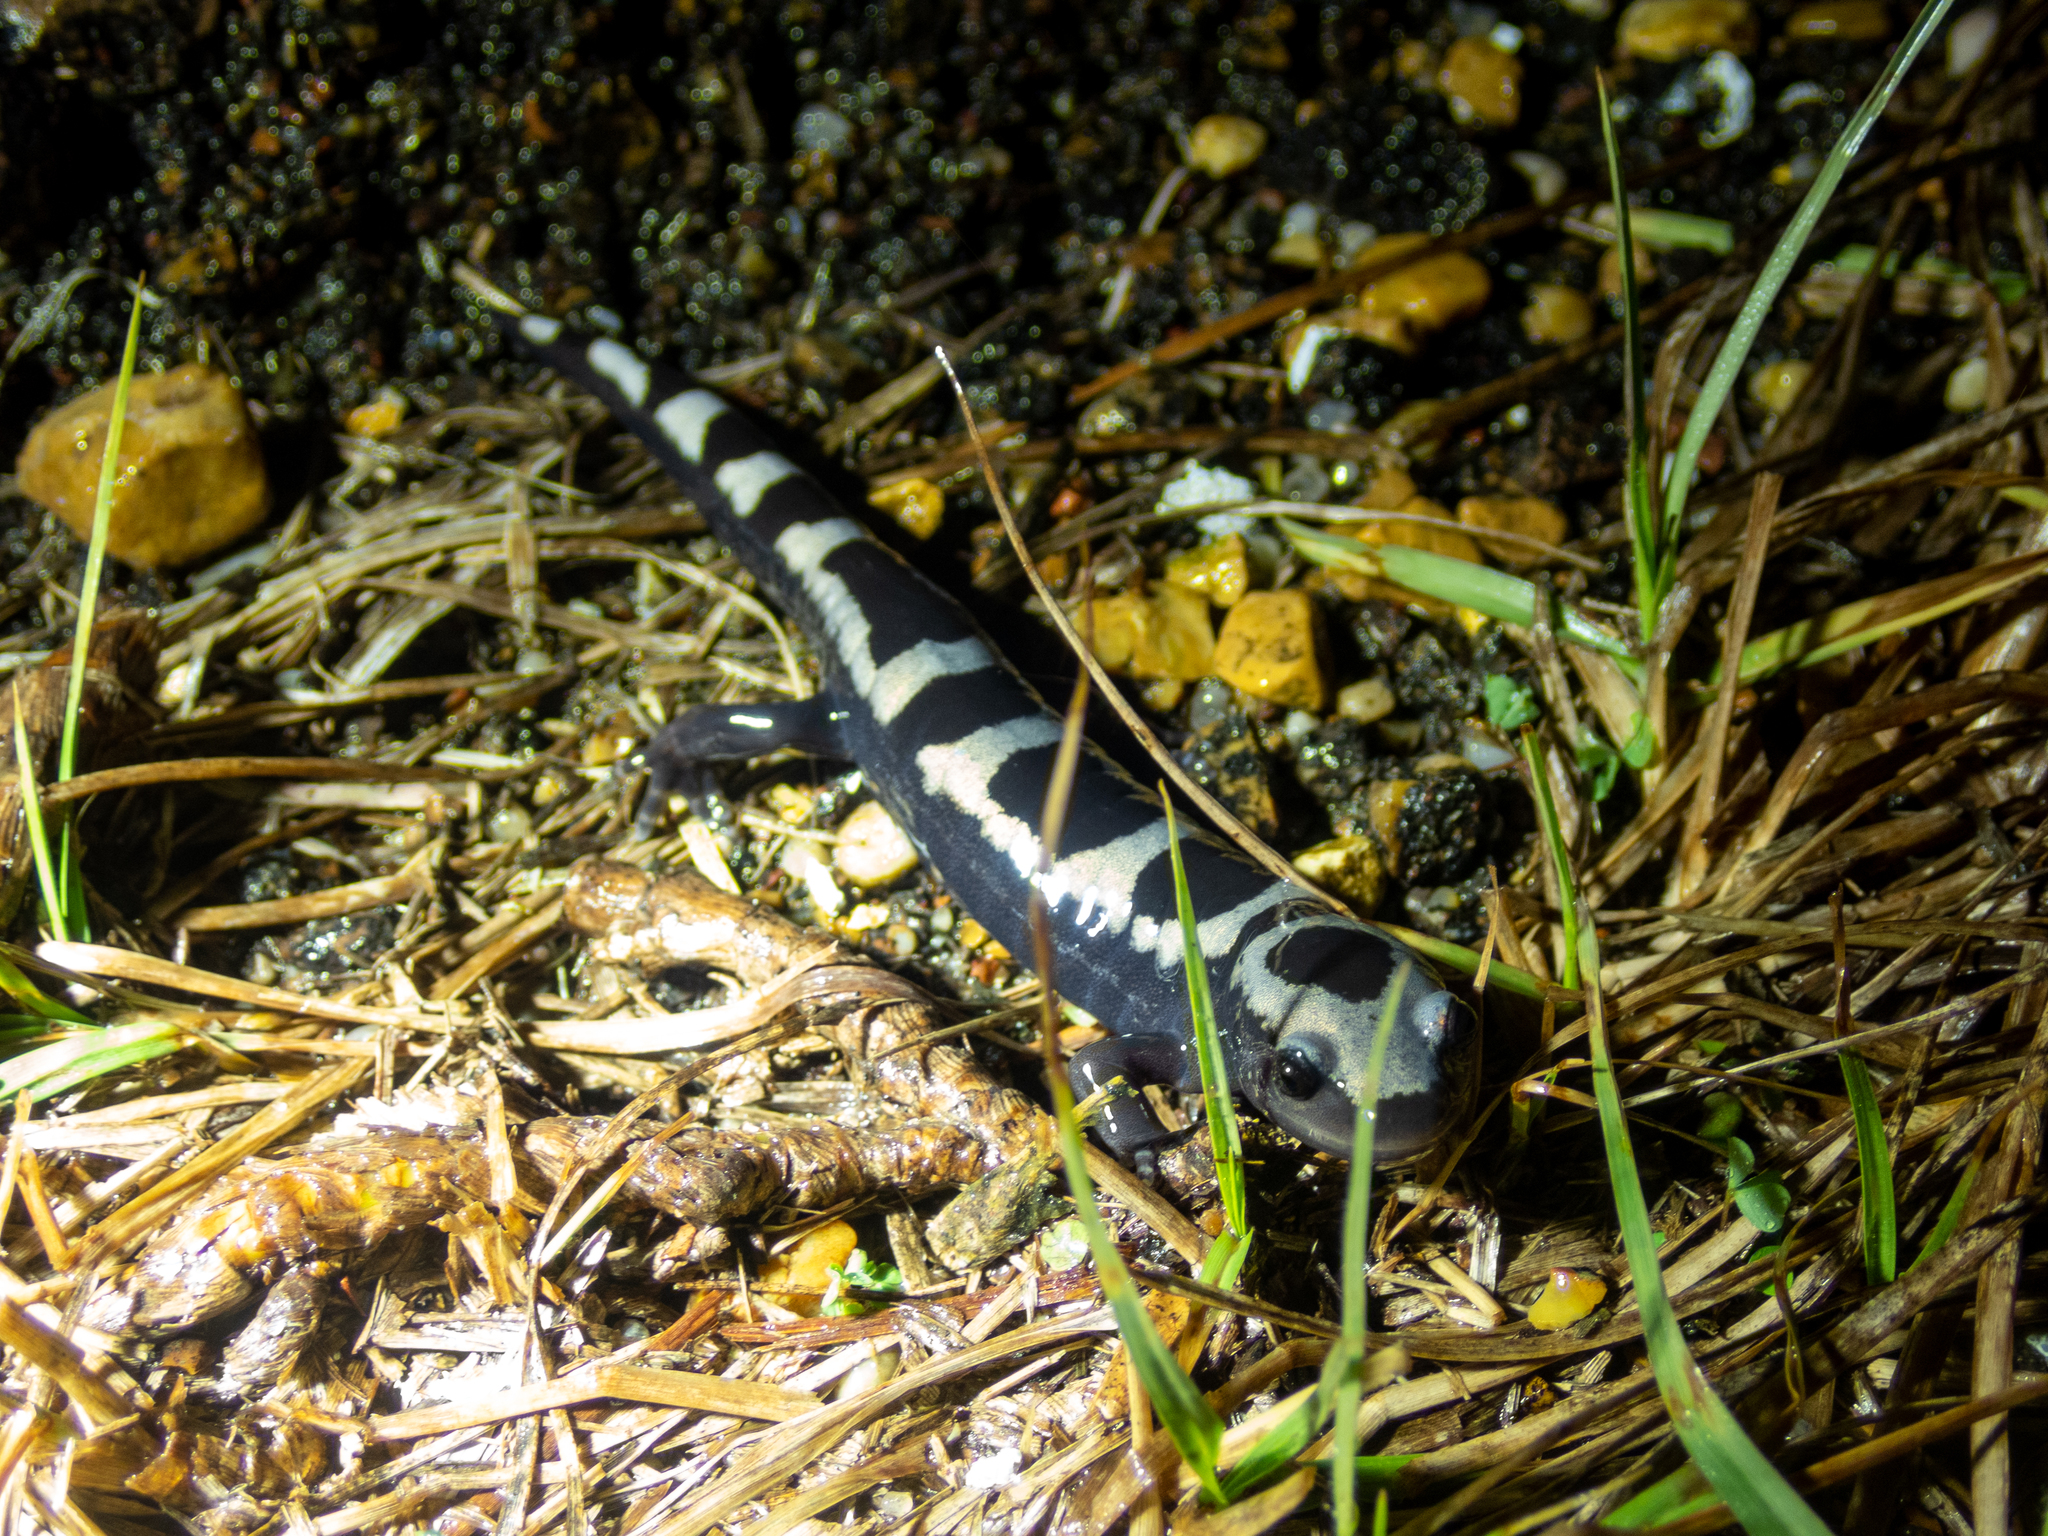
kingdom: Animalia
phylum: Chordata
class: Amphibia
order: Caudata
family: Ambystomatidae
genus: Ambystoma
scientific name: Ambystoma opacum
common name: Marbled salamander
